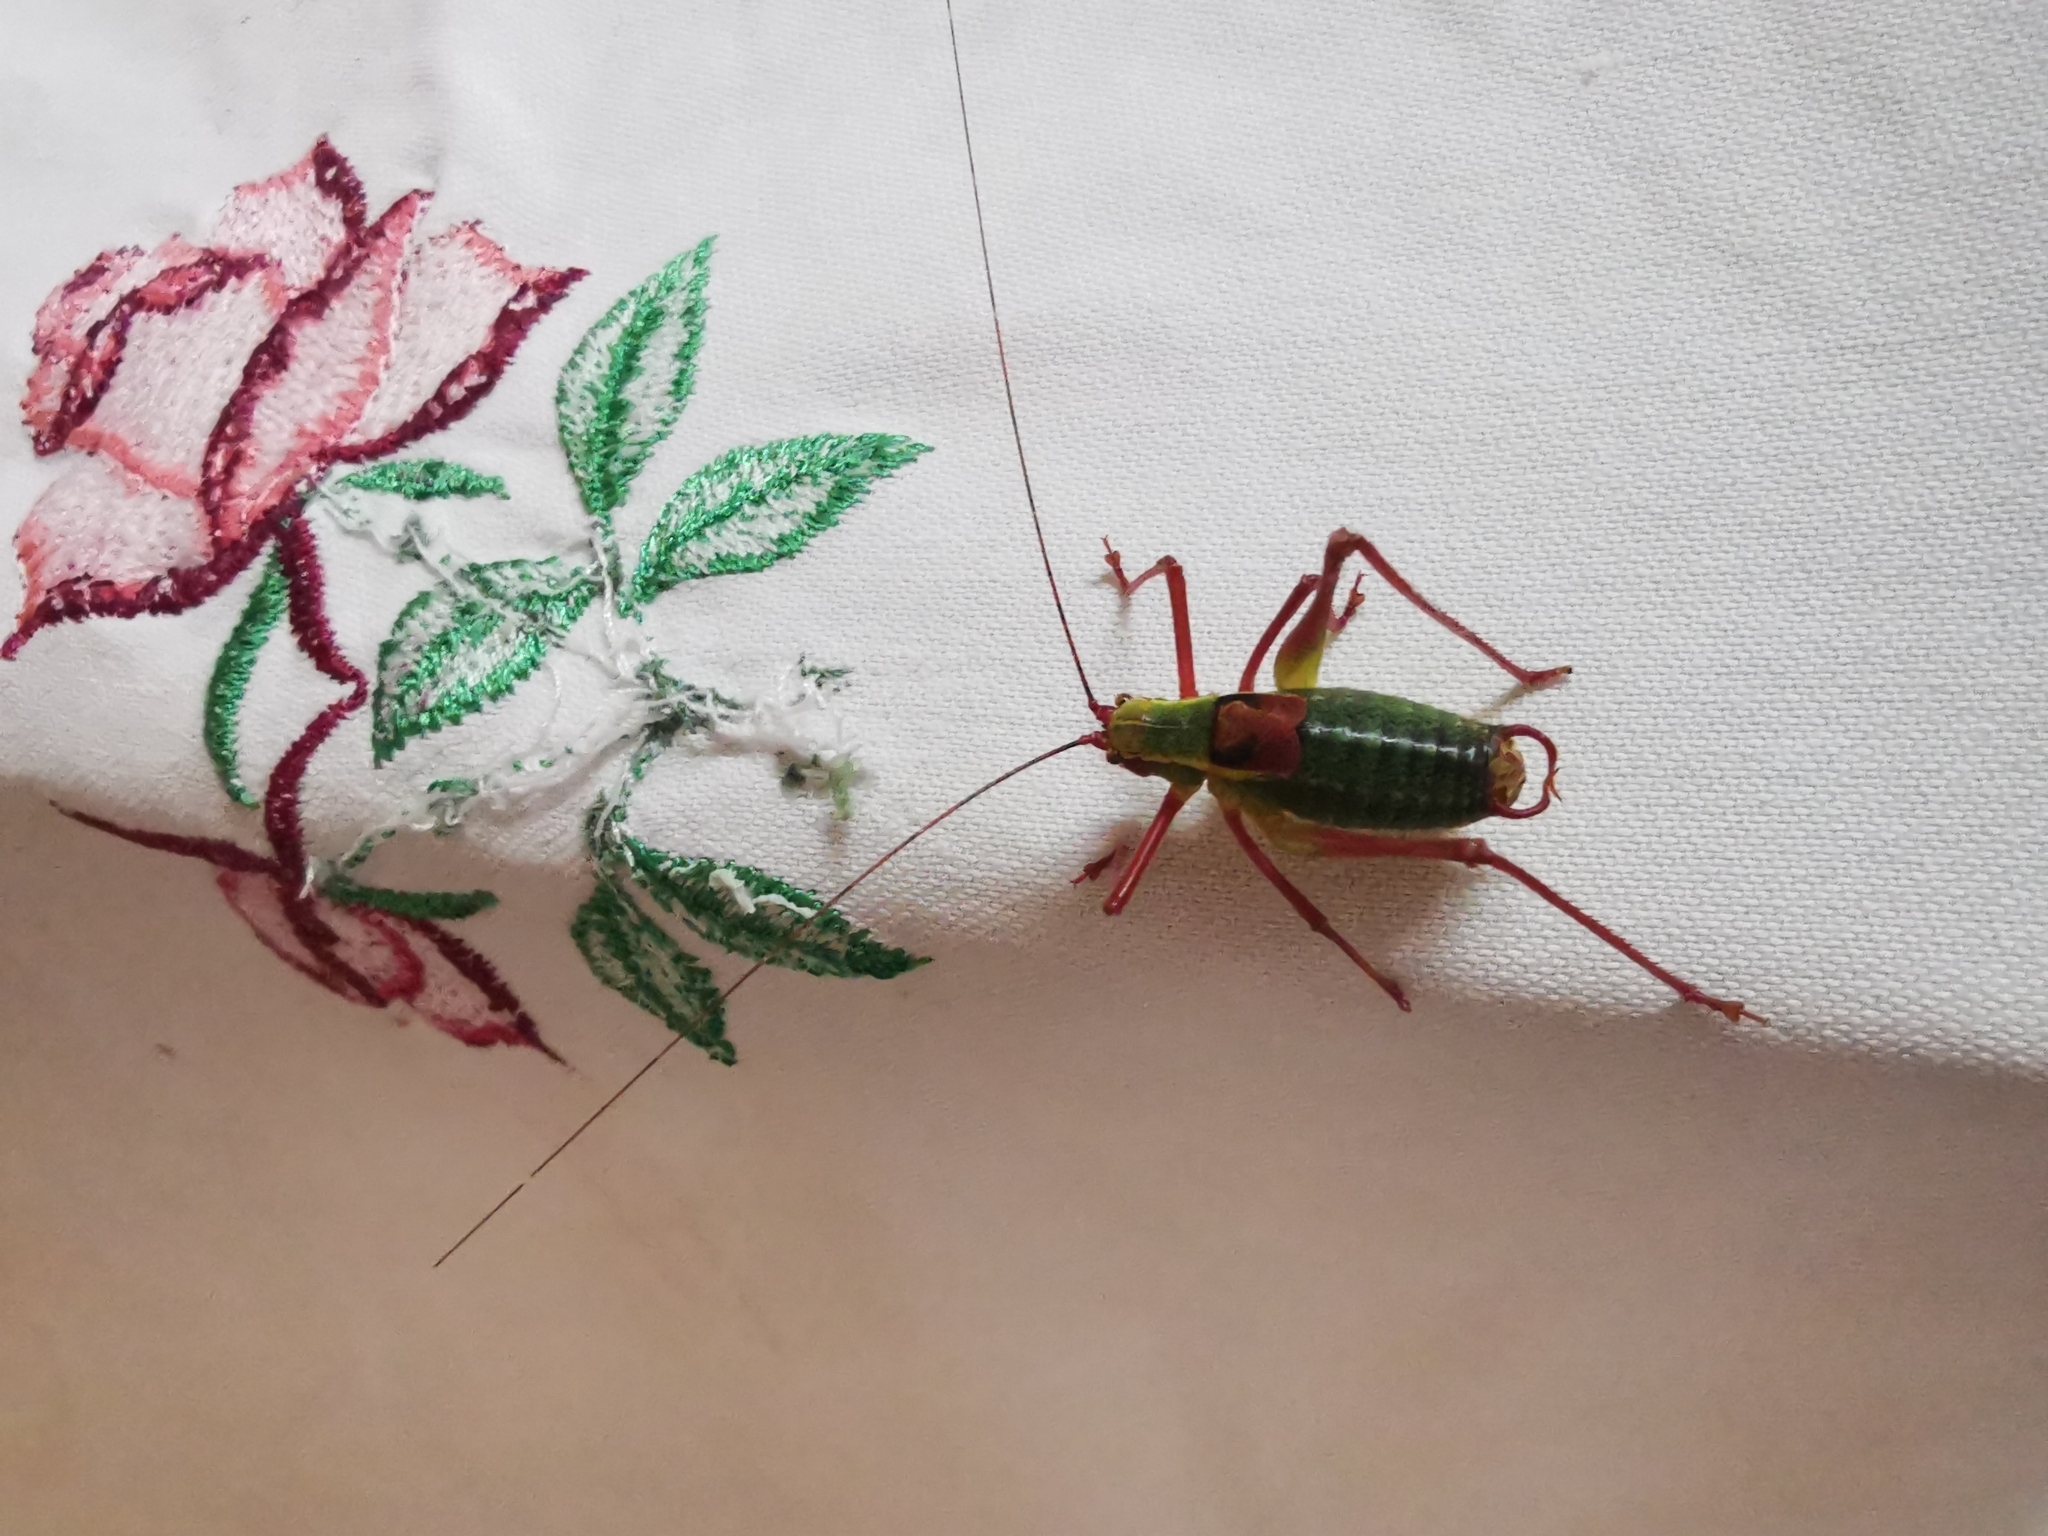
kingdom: Animalia
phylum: Arthropoda
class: Insecta
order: Orthoptera
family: Tettigoniidae
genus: Barbitistes
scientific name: Barbitistes serricauda
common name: Saw-tailed bush-cricket
